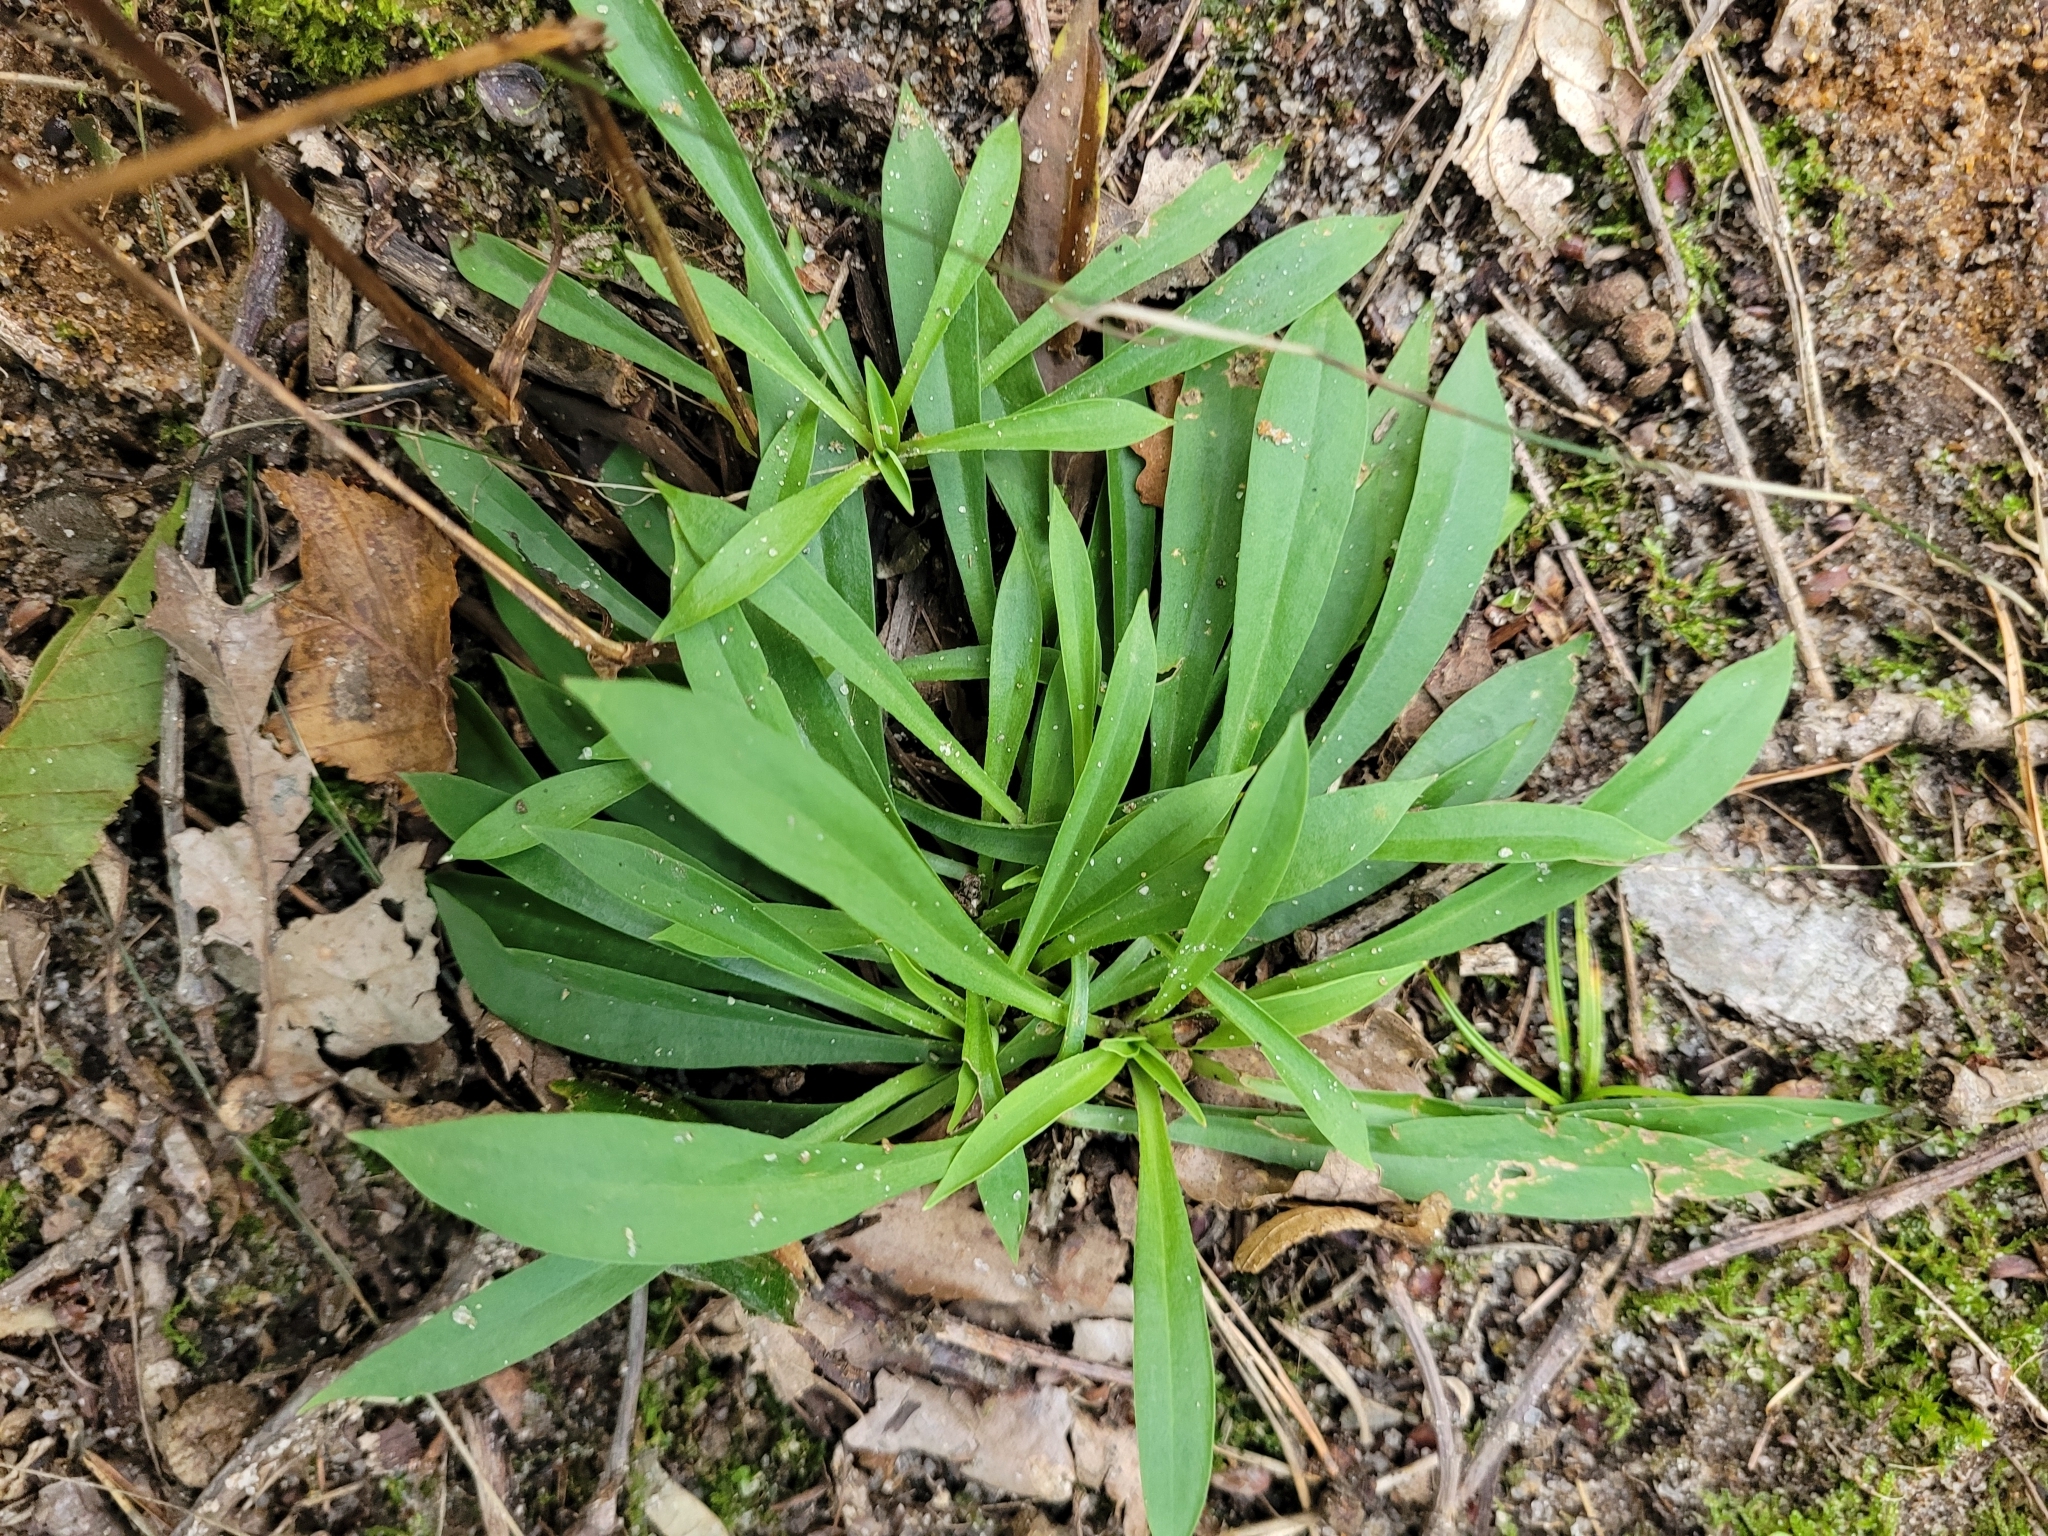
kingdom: Plantae
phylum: Tracheophyta
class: Magnoliopsida
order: Caryophyllales
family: Caryophyllaceae
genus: Viscaria
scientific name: Viscaria vulgaris
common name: Clammy campion
